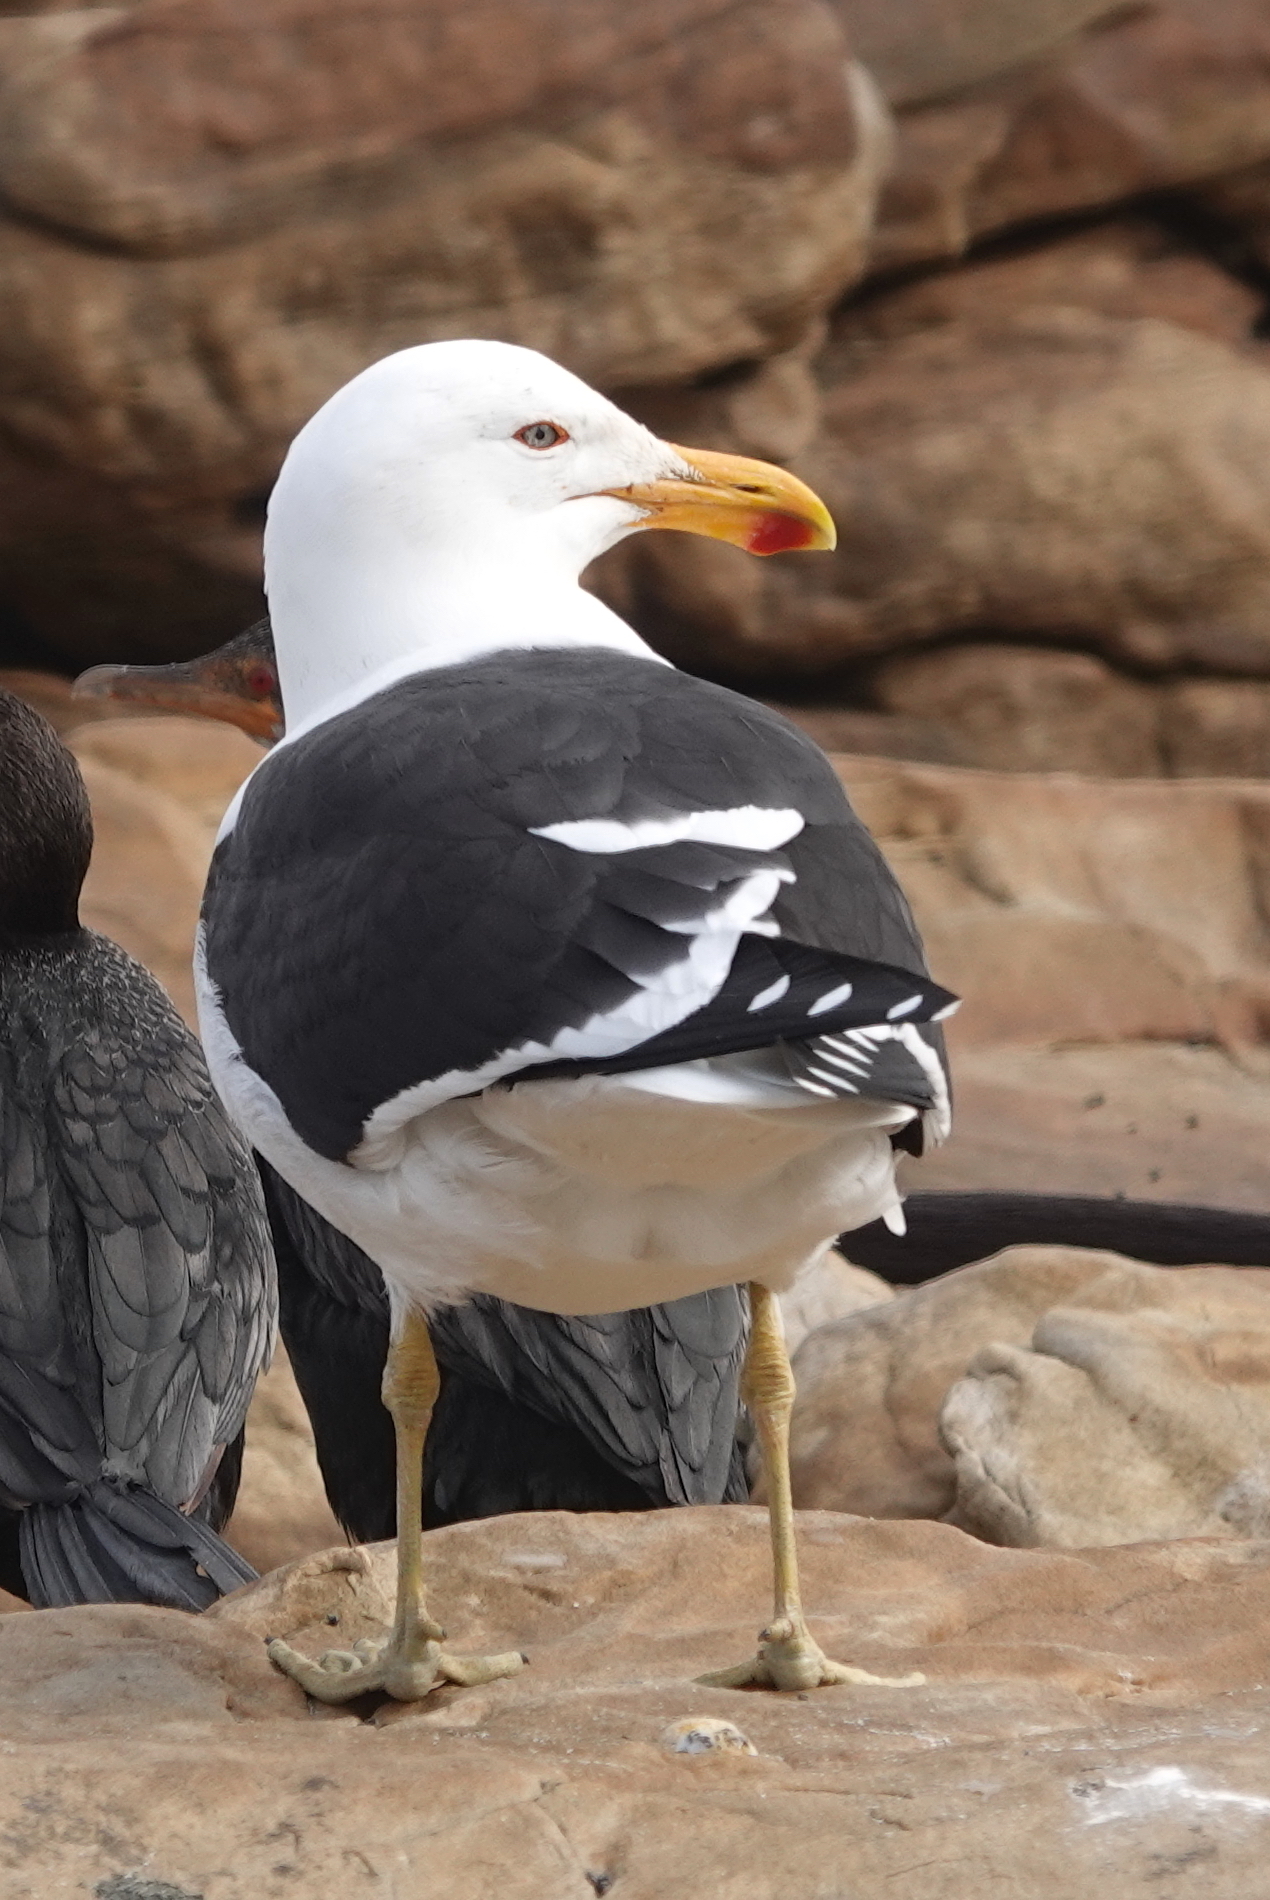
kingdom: Animalia
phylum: Chordata
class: Aves
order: Charadriiformes
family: Laridae
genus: Larus
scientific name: Larus dominicanus
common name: Kelp gull
